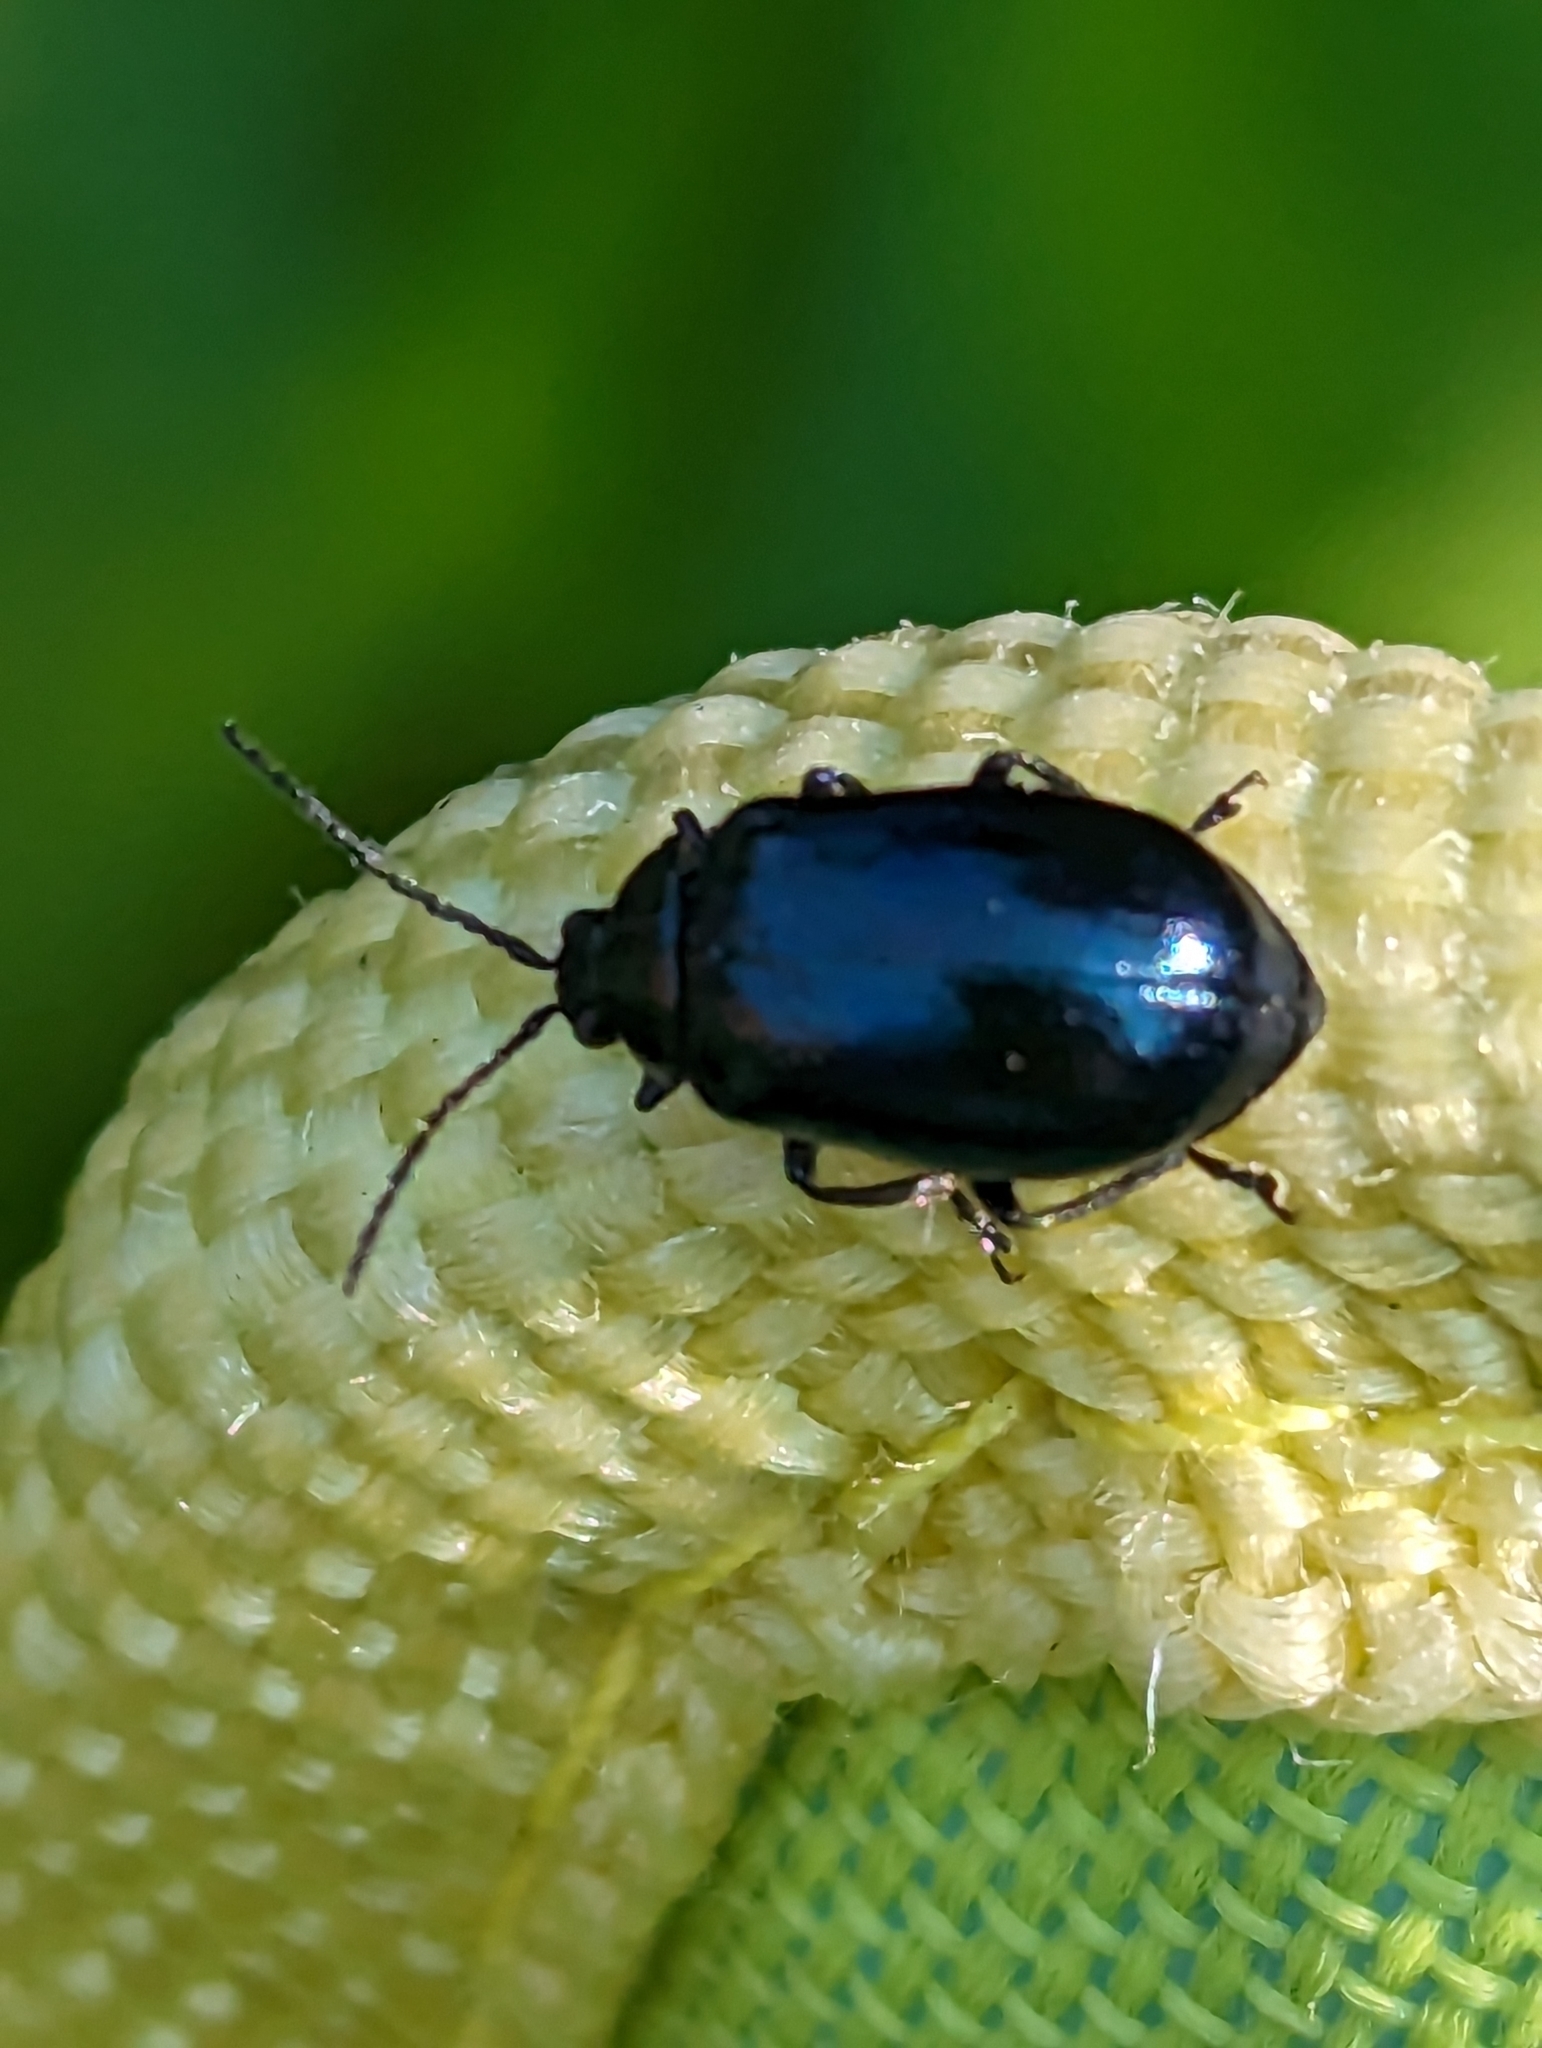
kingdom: Animalia
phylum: Arthropoda
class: Insecta
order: Coleoptera
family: Chrysomelidae
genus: Agelastica
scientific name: Agelastica alni
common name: Alder leaf beetle
